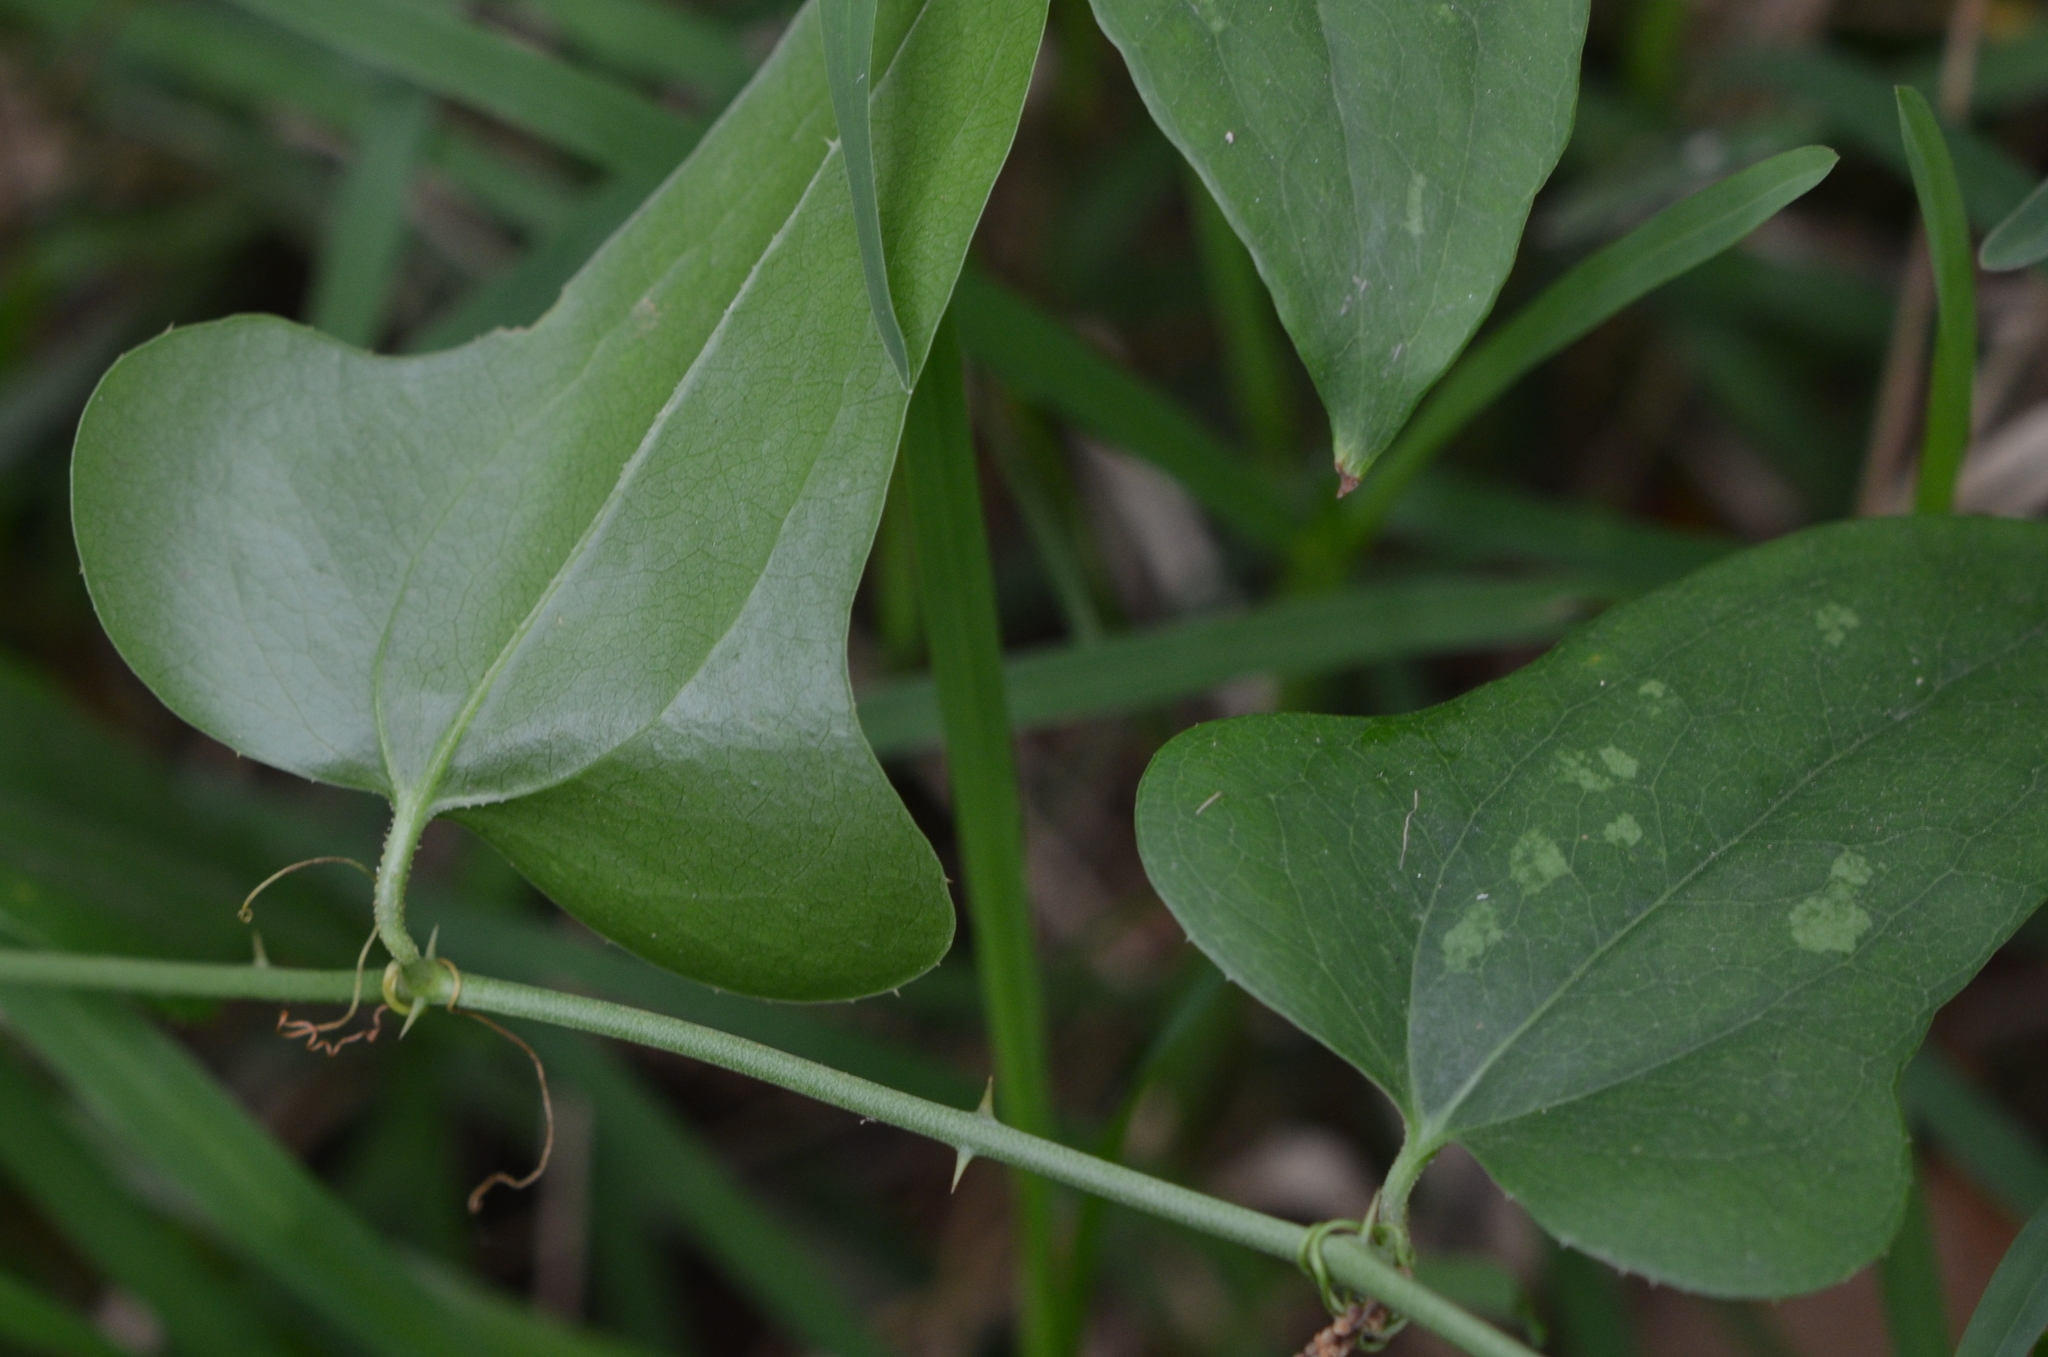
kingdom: Plantae
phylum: Tracheophyta
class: Liliopsida
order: Liliales
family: Smilacaceae
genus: Smilax
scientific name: Smilax bona-nox
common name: Catbrier
